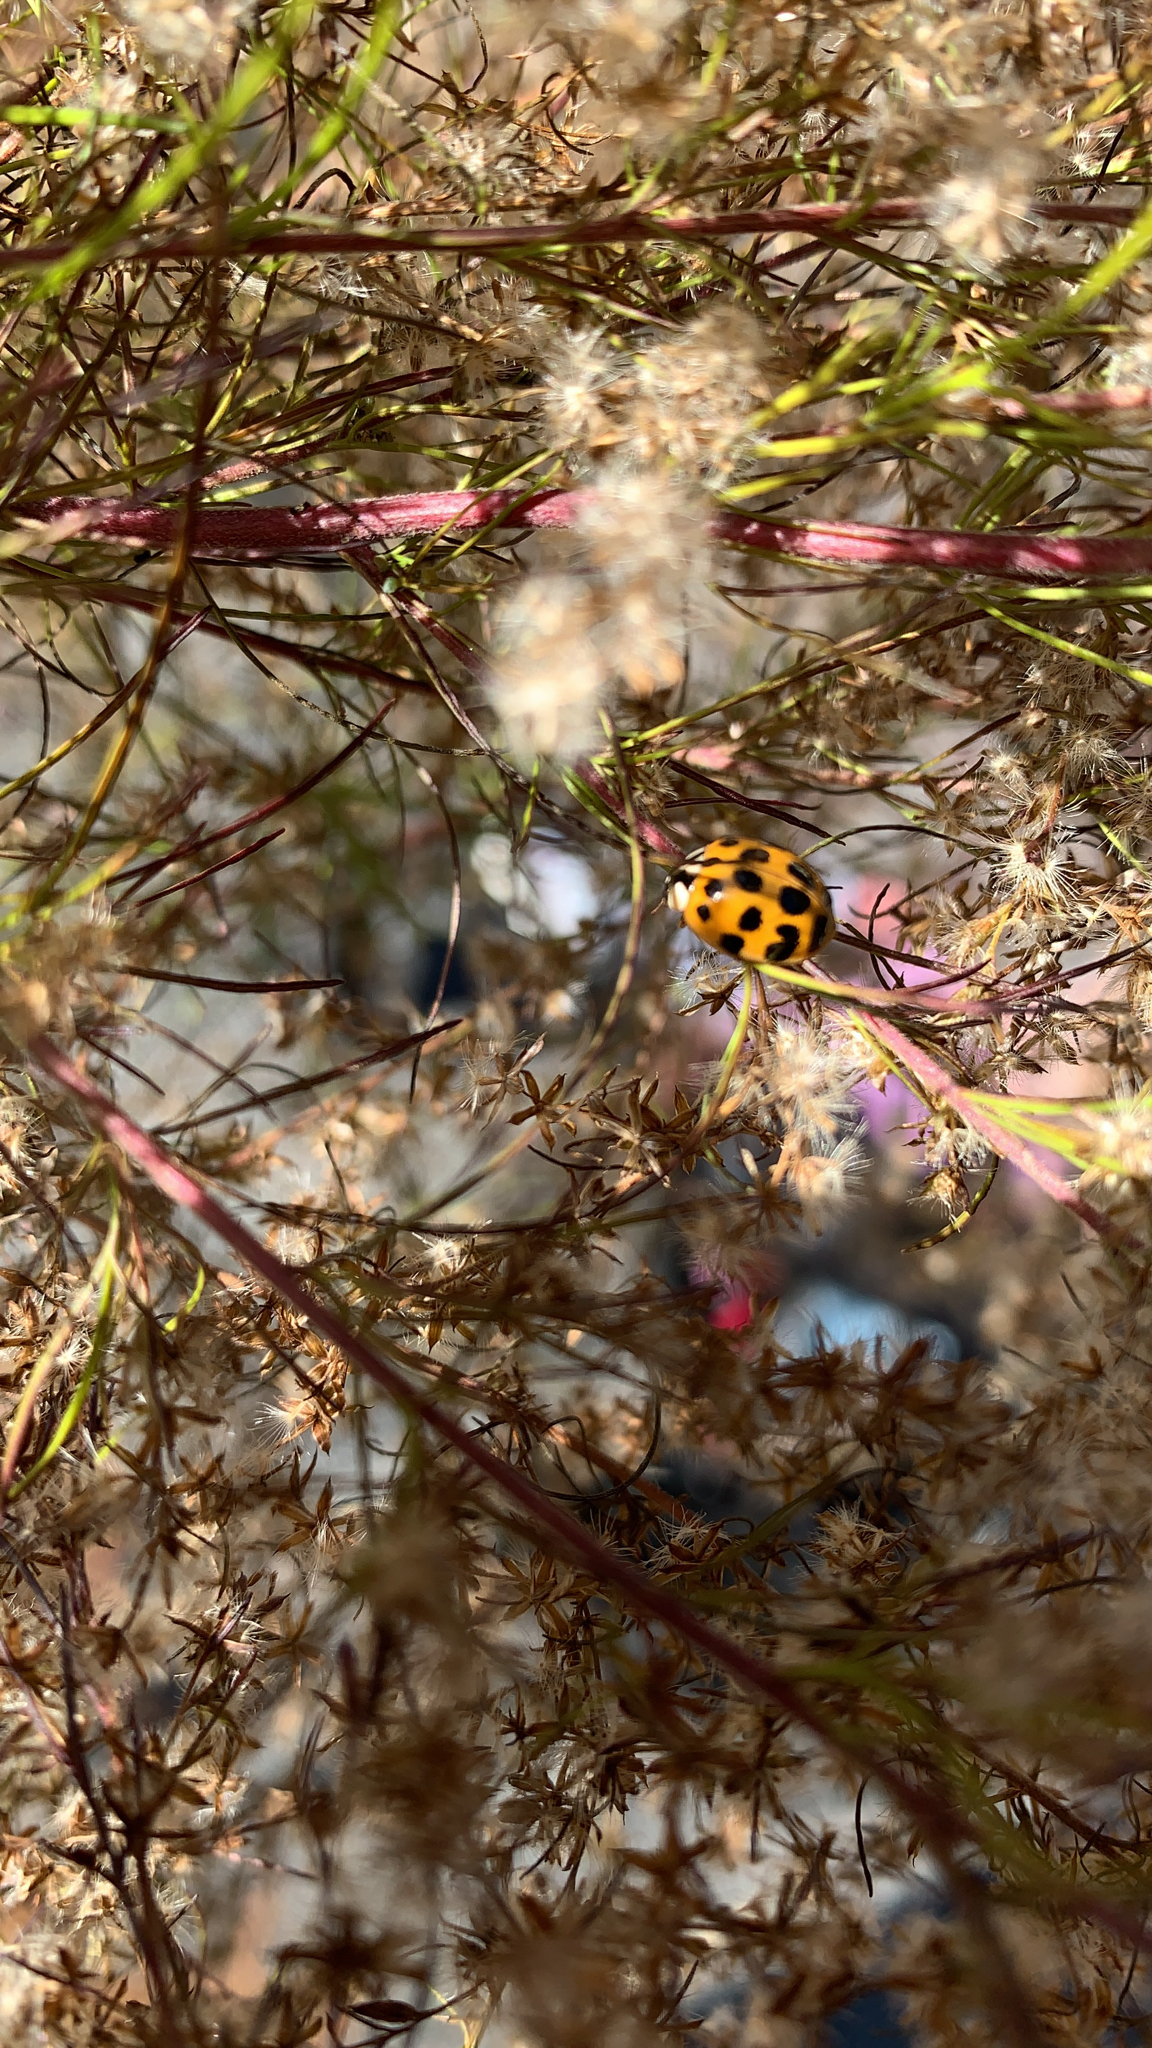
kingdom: Animalia
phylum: Arthropoda
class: Insecta
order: Coleoptera
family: Coccinellidae
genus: Harmonia
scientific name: Harmonia axyridis
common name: Harlequin ladybird
